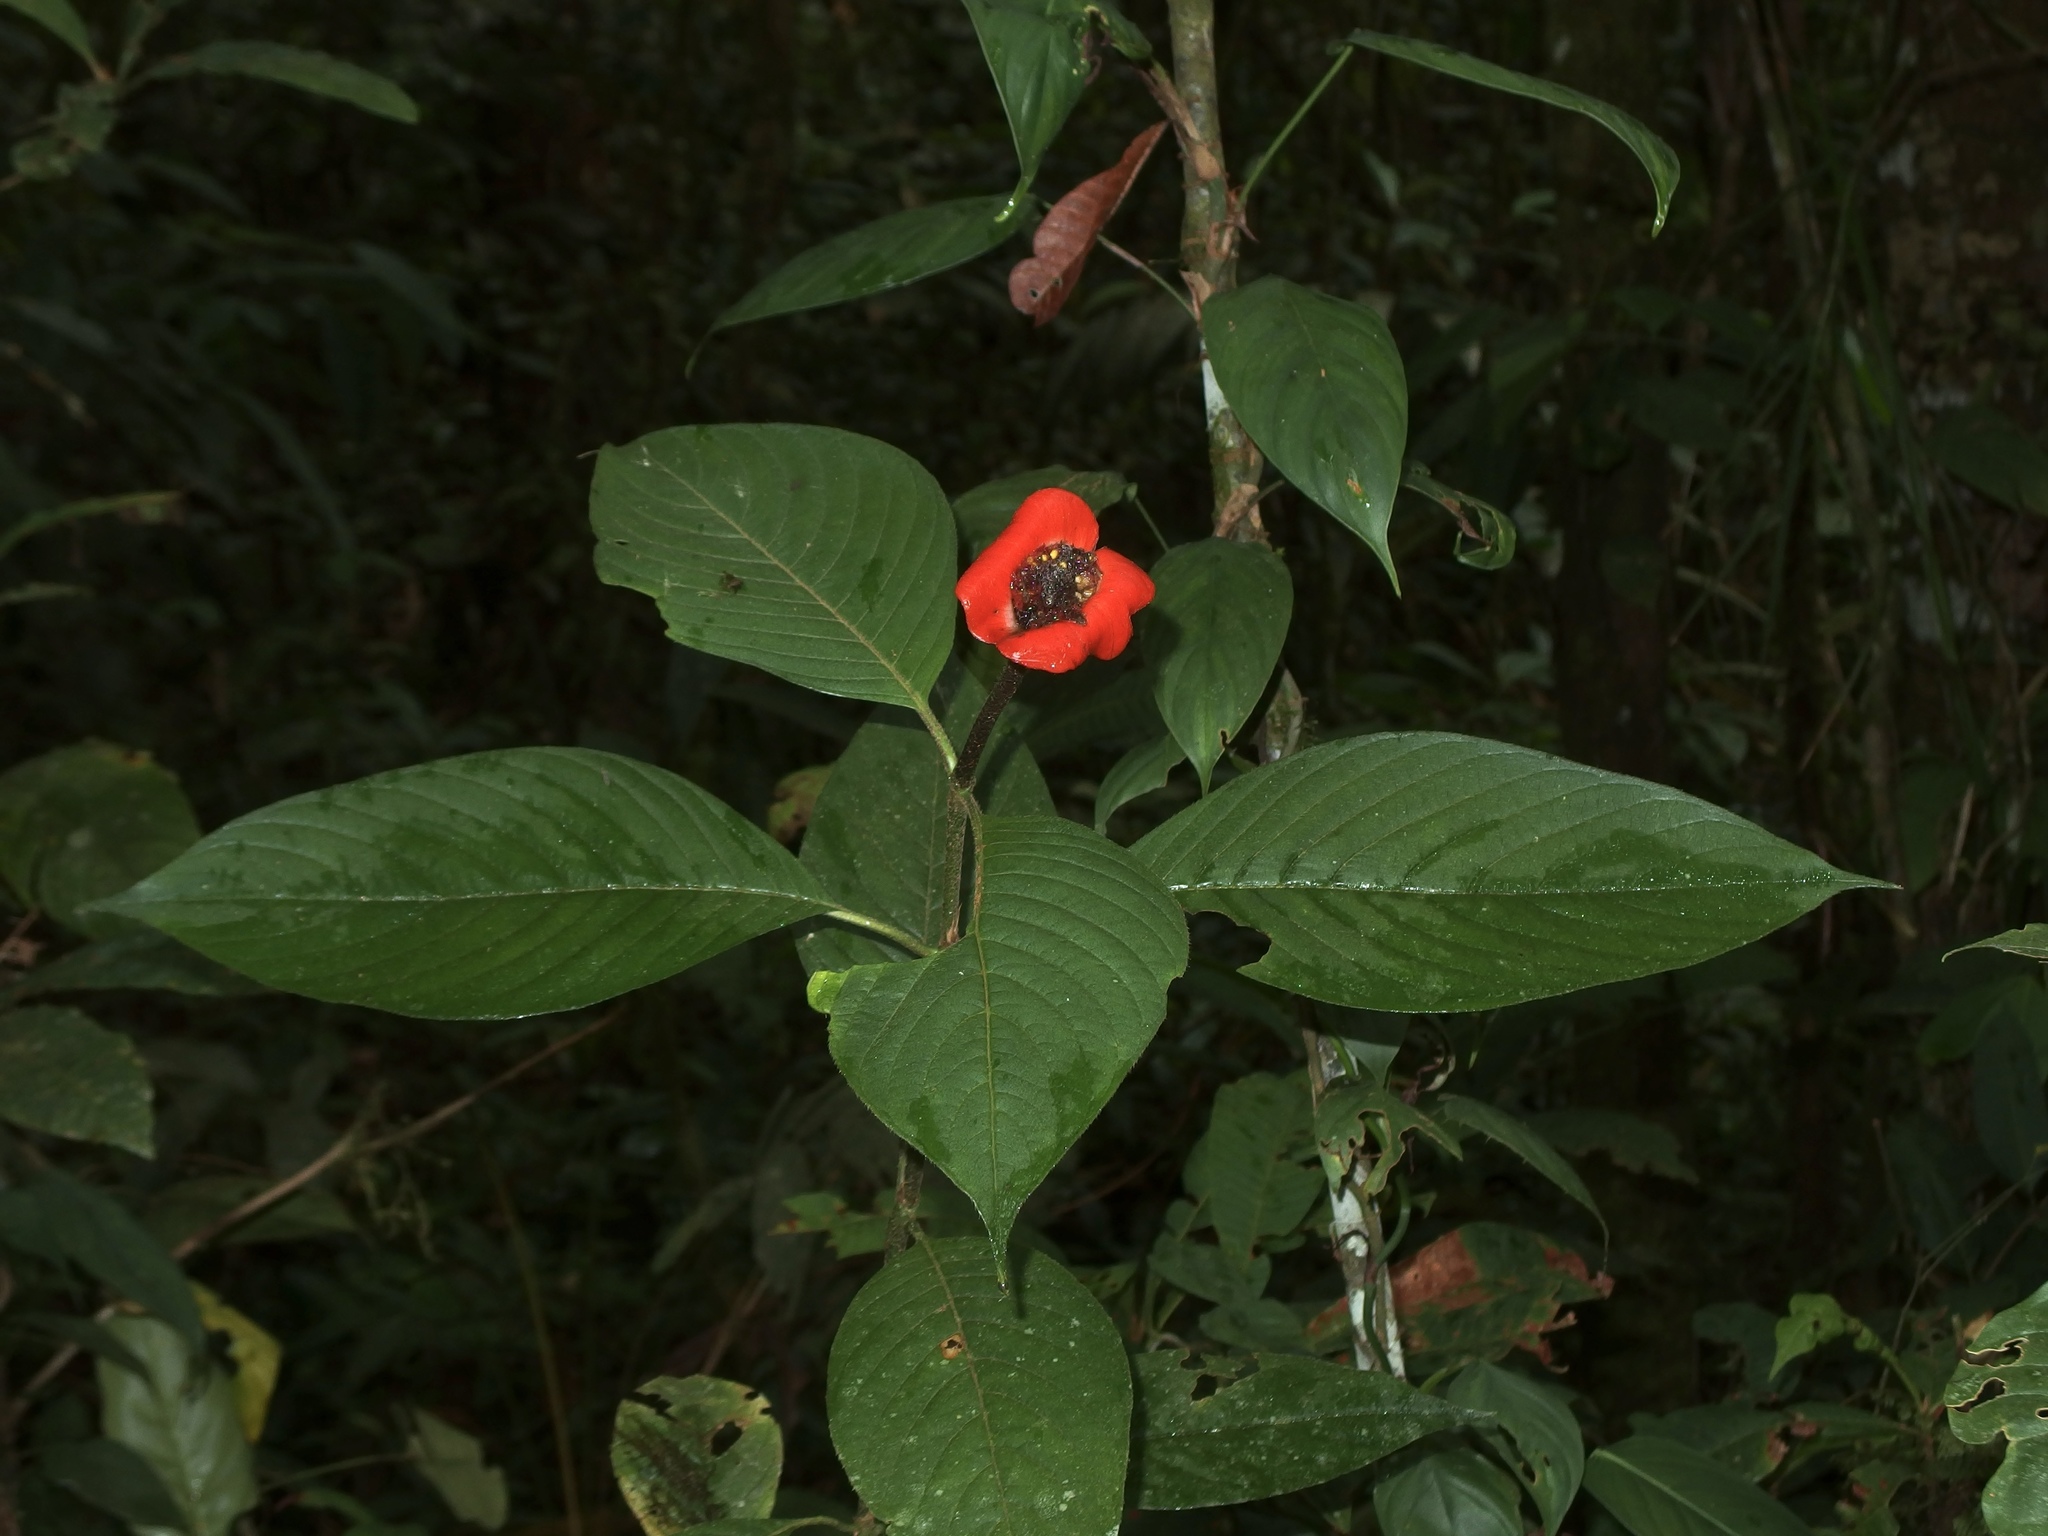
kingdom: Plantae
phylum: Tracheophyta
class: Magnoliopsida
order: Gentianales
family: Rubiaceae
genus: Palicourea
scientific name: Palicourea tomentosa
